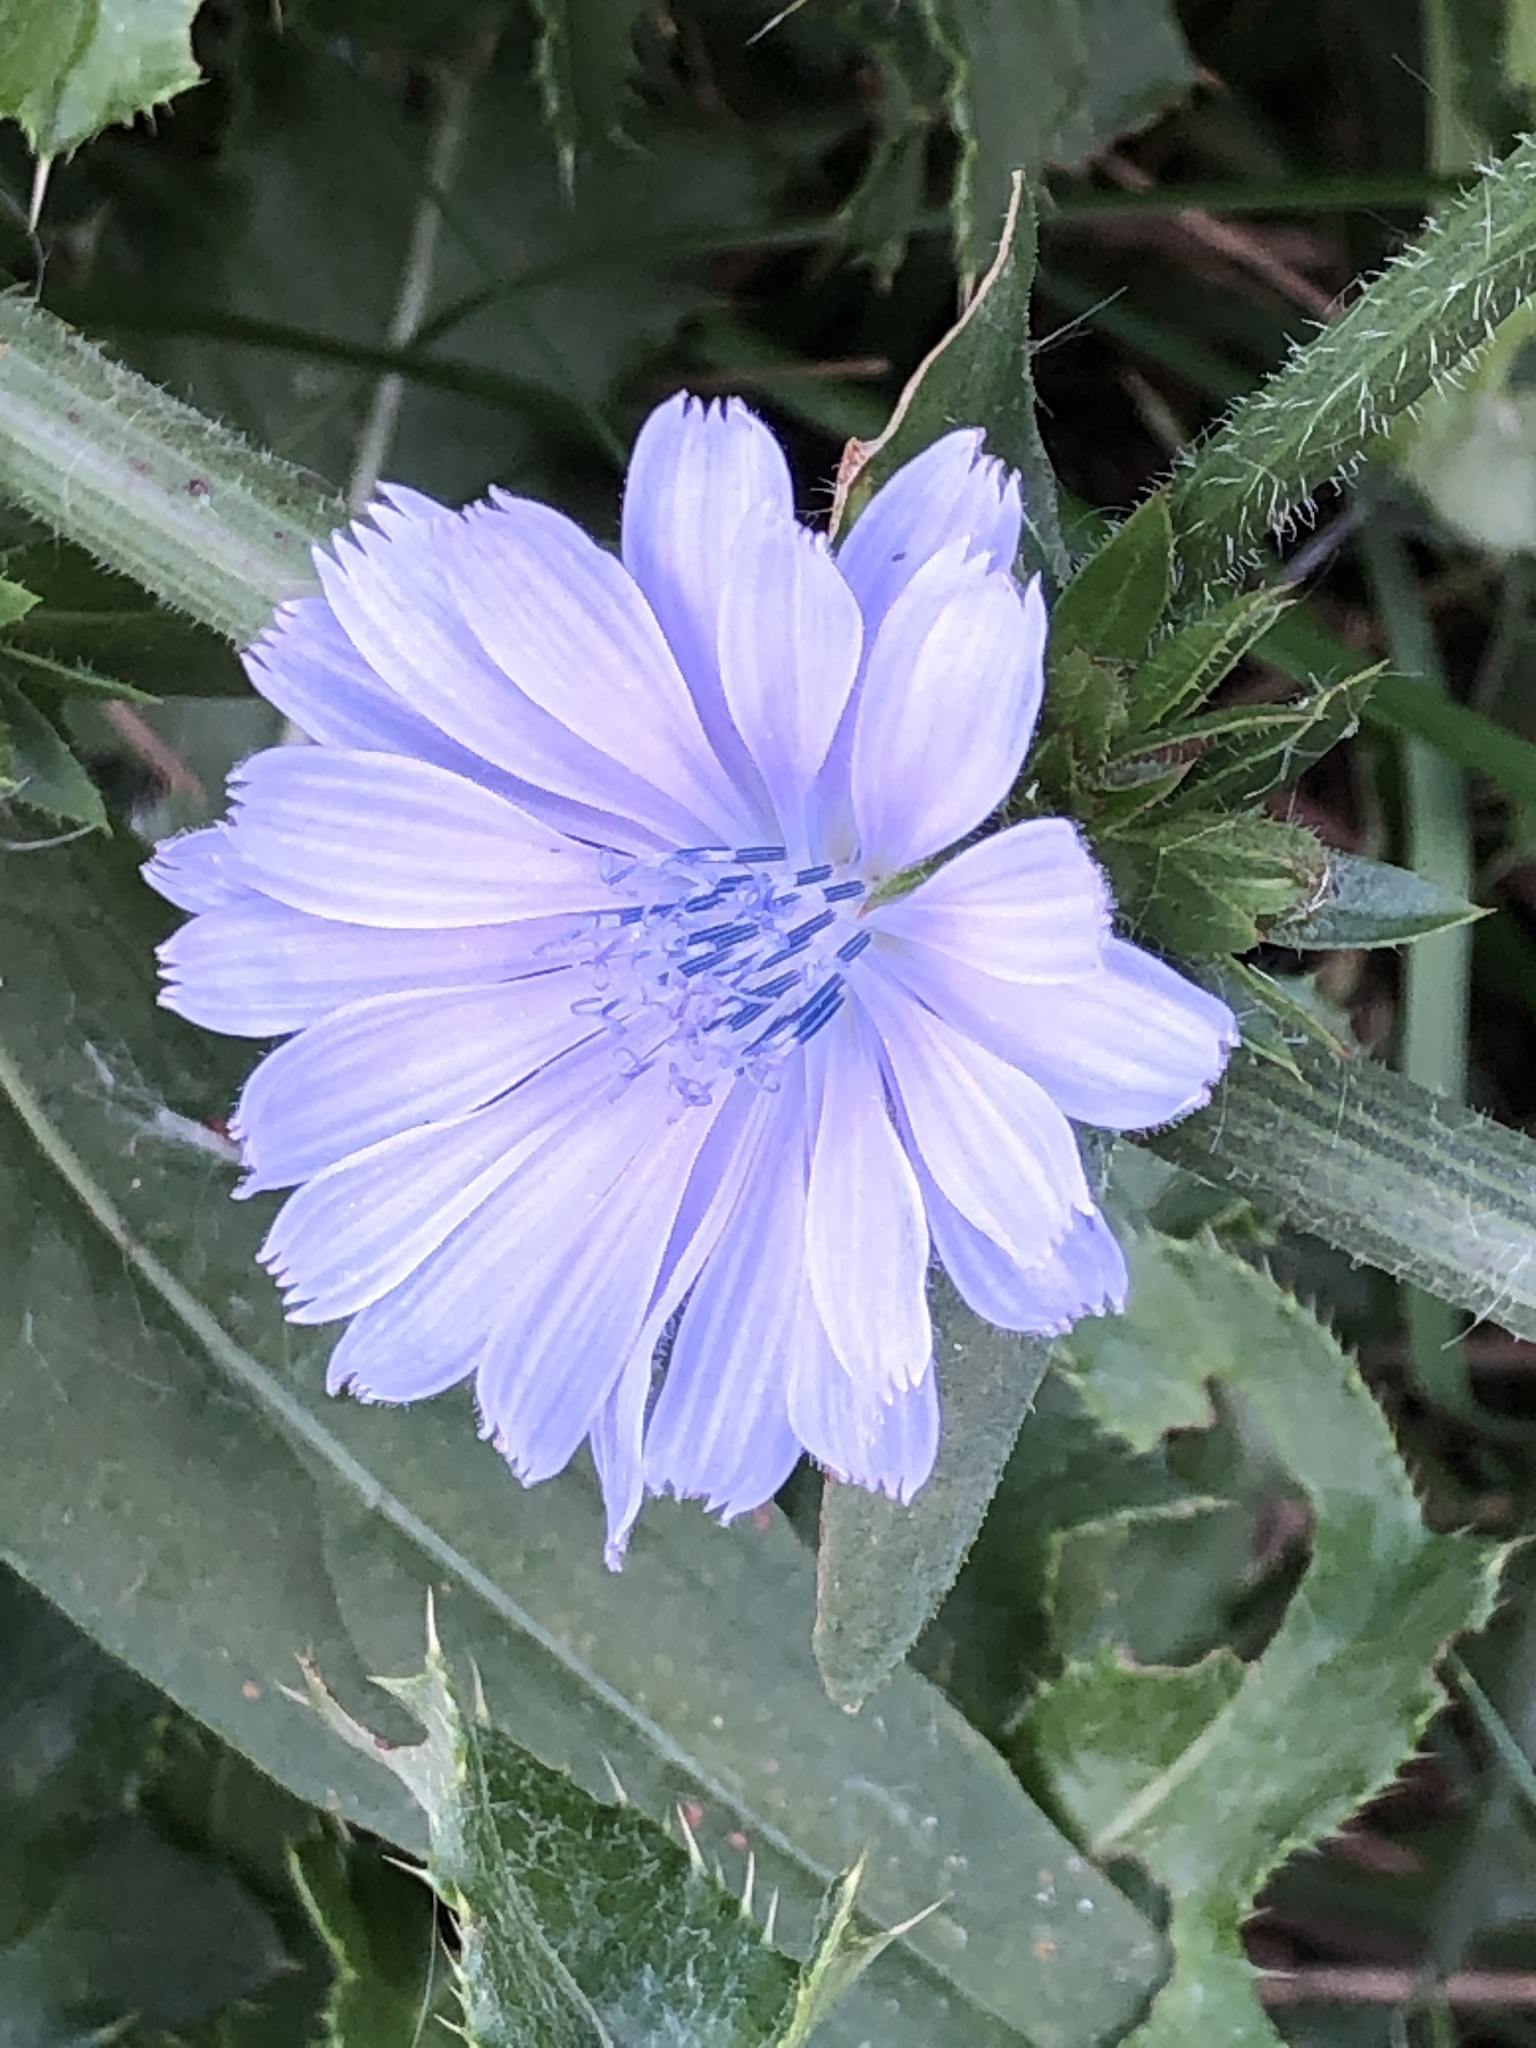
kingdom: Plantae
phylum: Tracheophyta
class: Magnoliopsida
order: Asterales
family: Asteraceae
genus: Cichorium
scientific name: Cichorium intybus
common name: Chicory
